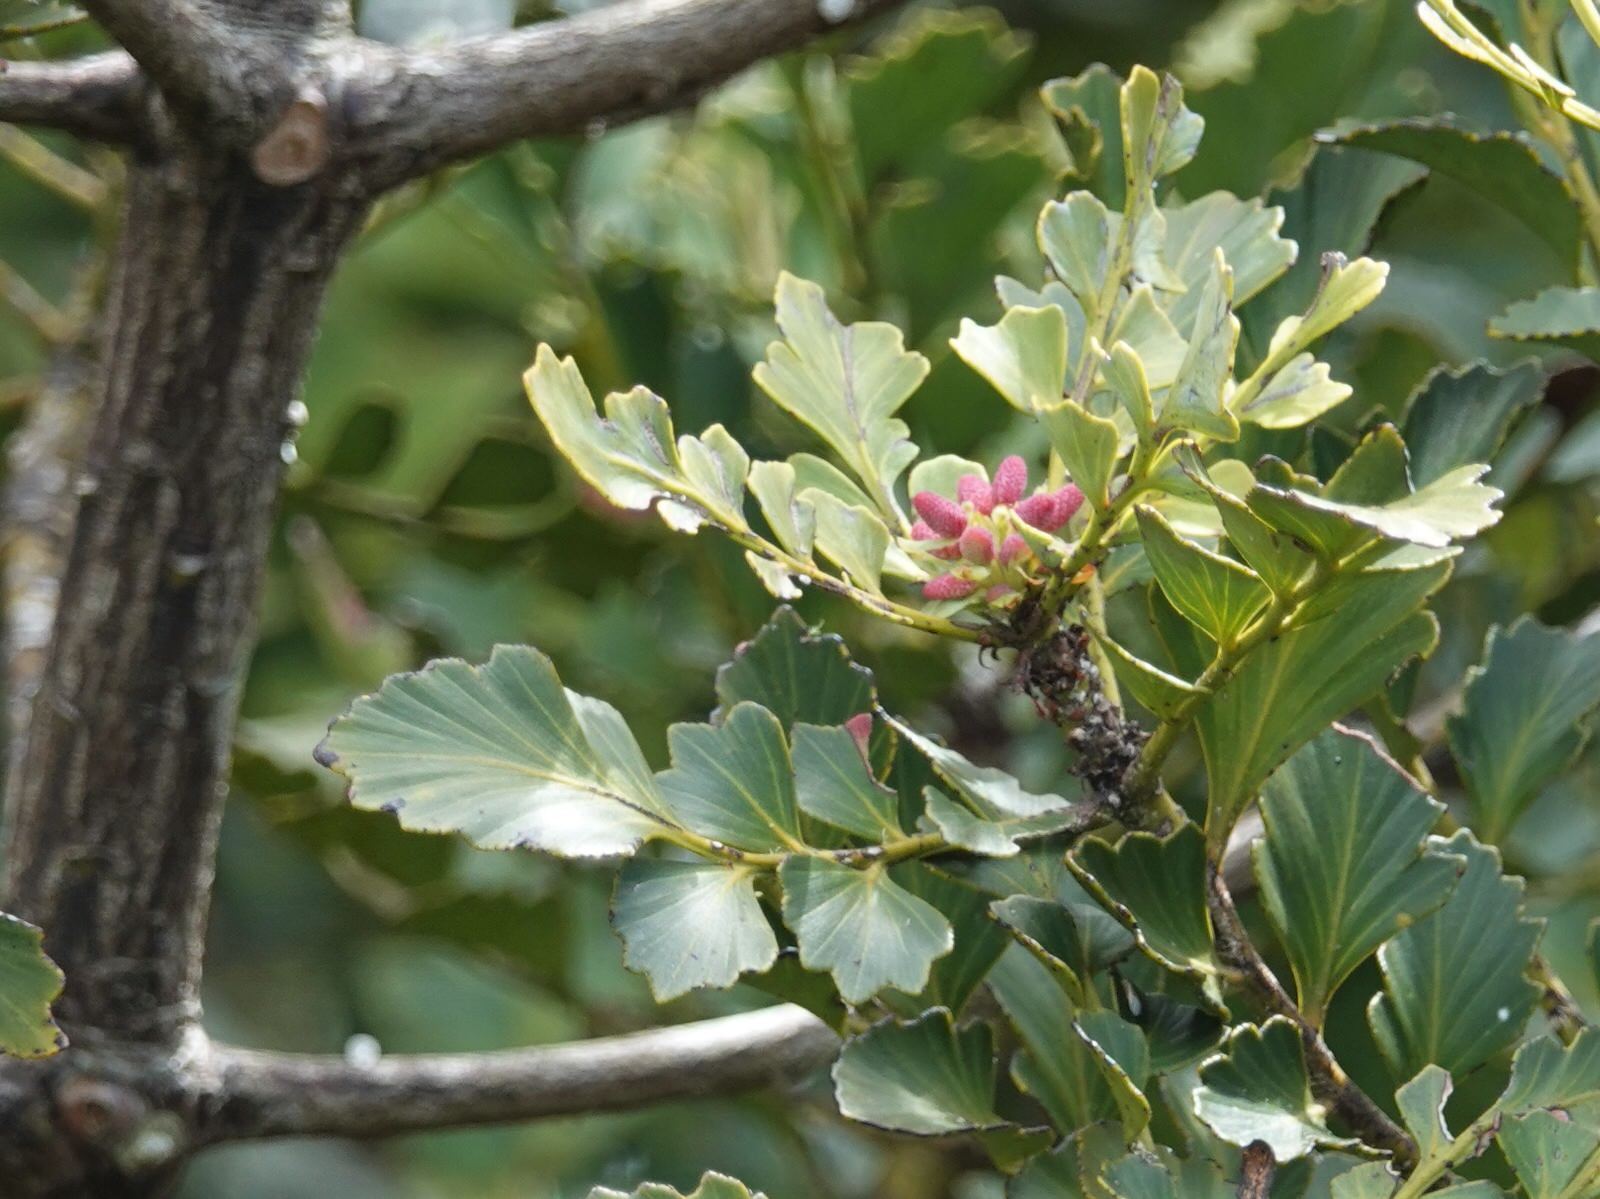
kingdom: Plantae
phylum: Tracheophyta
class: Pinopsida
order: Pinales
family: Phyllocladaceae
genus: Phyllocladus
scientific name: Phyllocladus toatoa
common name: Celery-top pine
